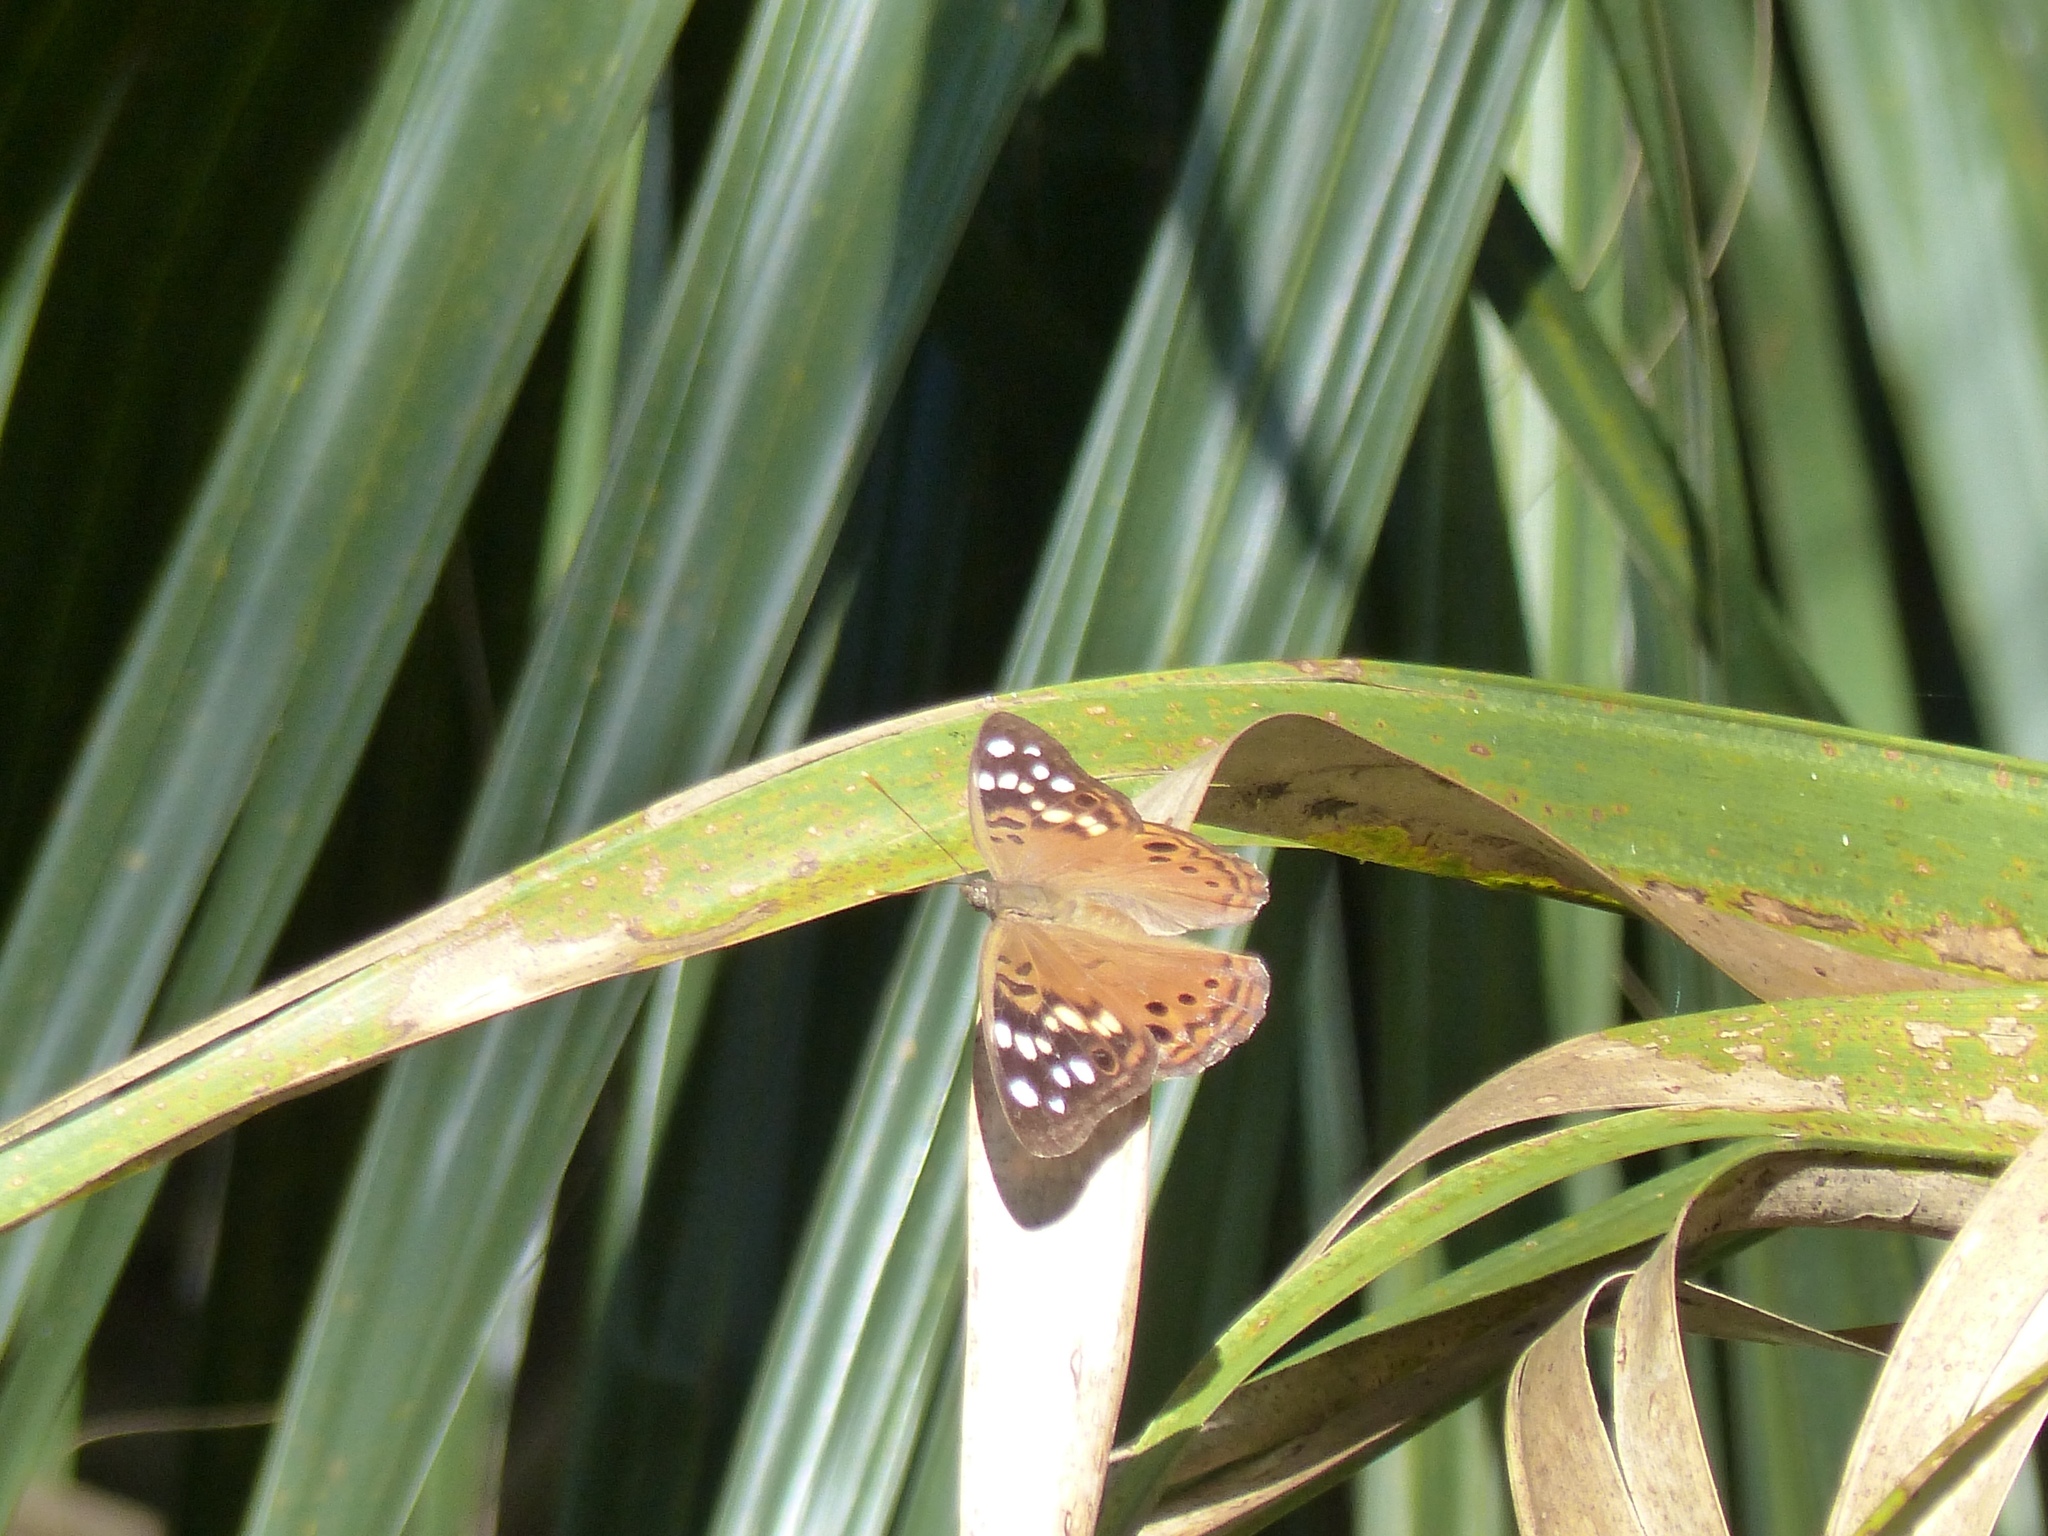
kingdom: Animalia
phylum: Arthropoda
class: Insecta
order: Lepidoptera
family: Nymphalidae
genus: Asterocampa
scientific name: Asterocampa celtis
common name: Hackberry emperor
